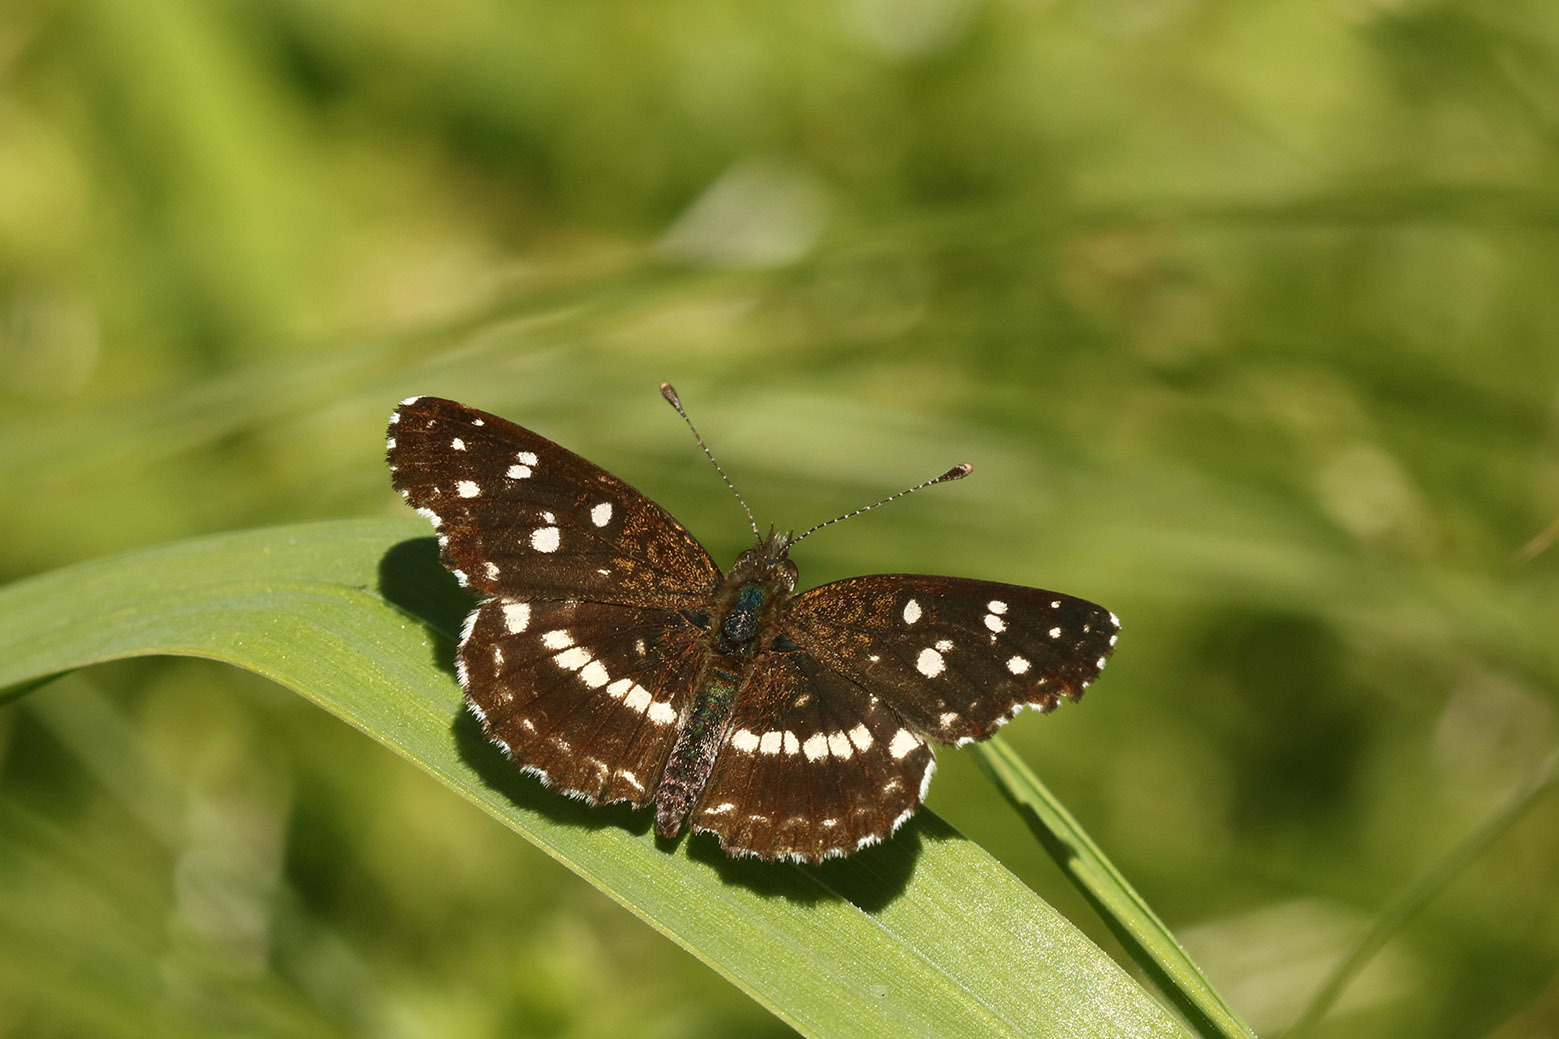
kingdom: Animalia
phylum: Arthropoda
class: Insecta
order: Lepidoptera
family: Nymphalidae
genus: Ortilia
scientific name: Ortilia ithra
